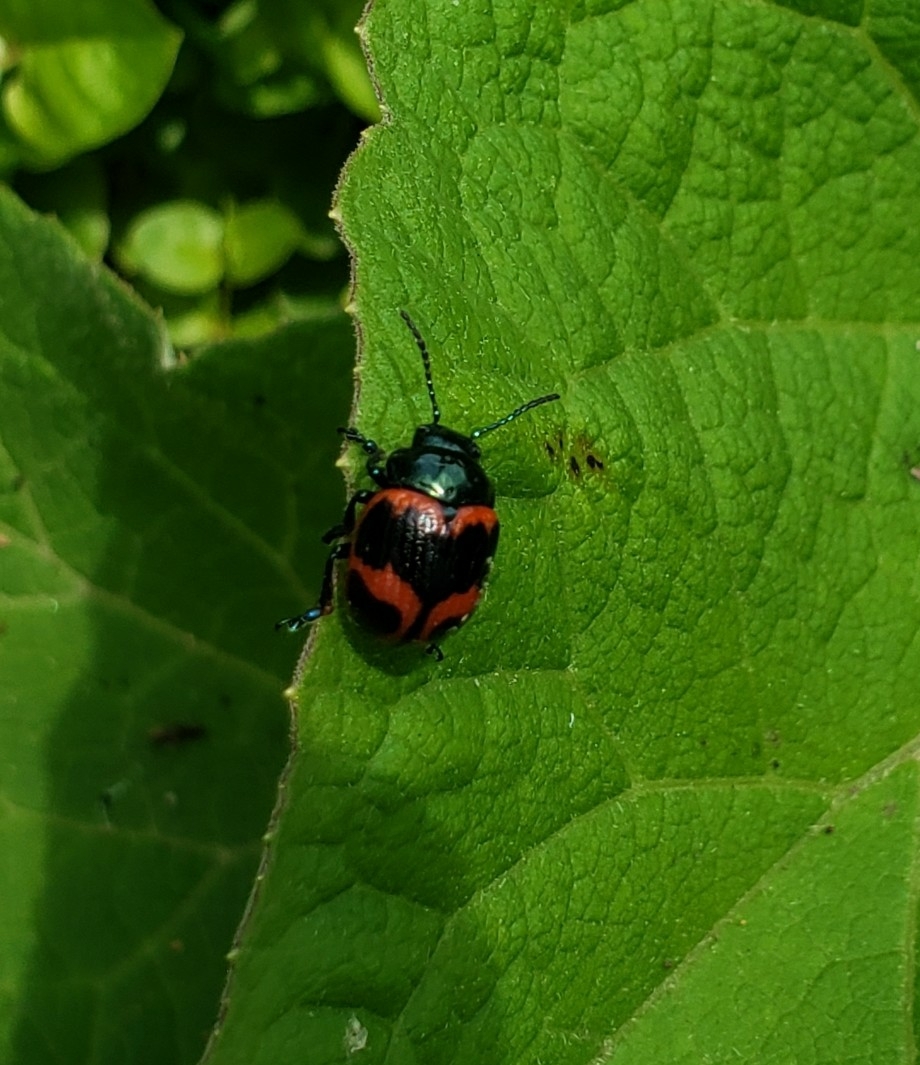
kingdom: Animalia
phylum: Arthropoda
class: Insecta
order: Coleoptera
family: Chrysomelidae
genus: Labidomera
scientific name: Labidomera clivicollis
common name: Swamp milkweed leaf beetle
